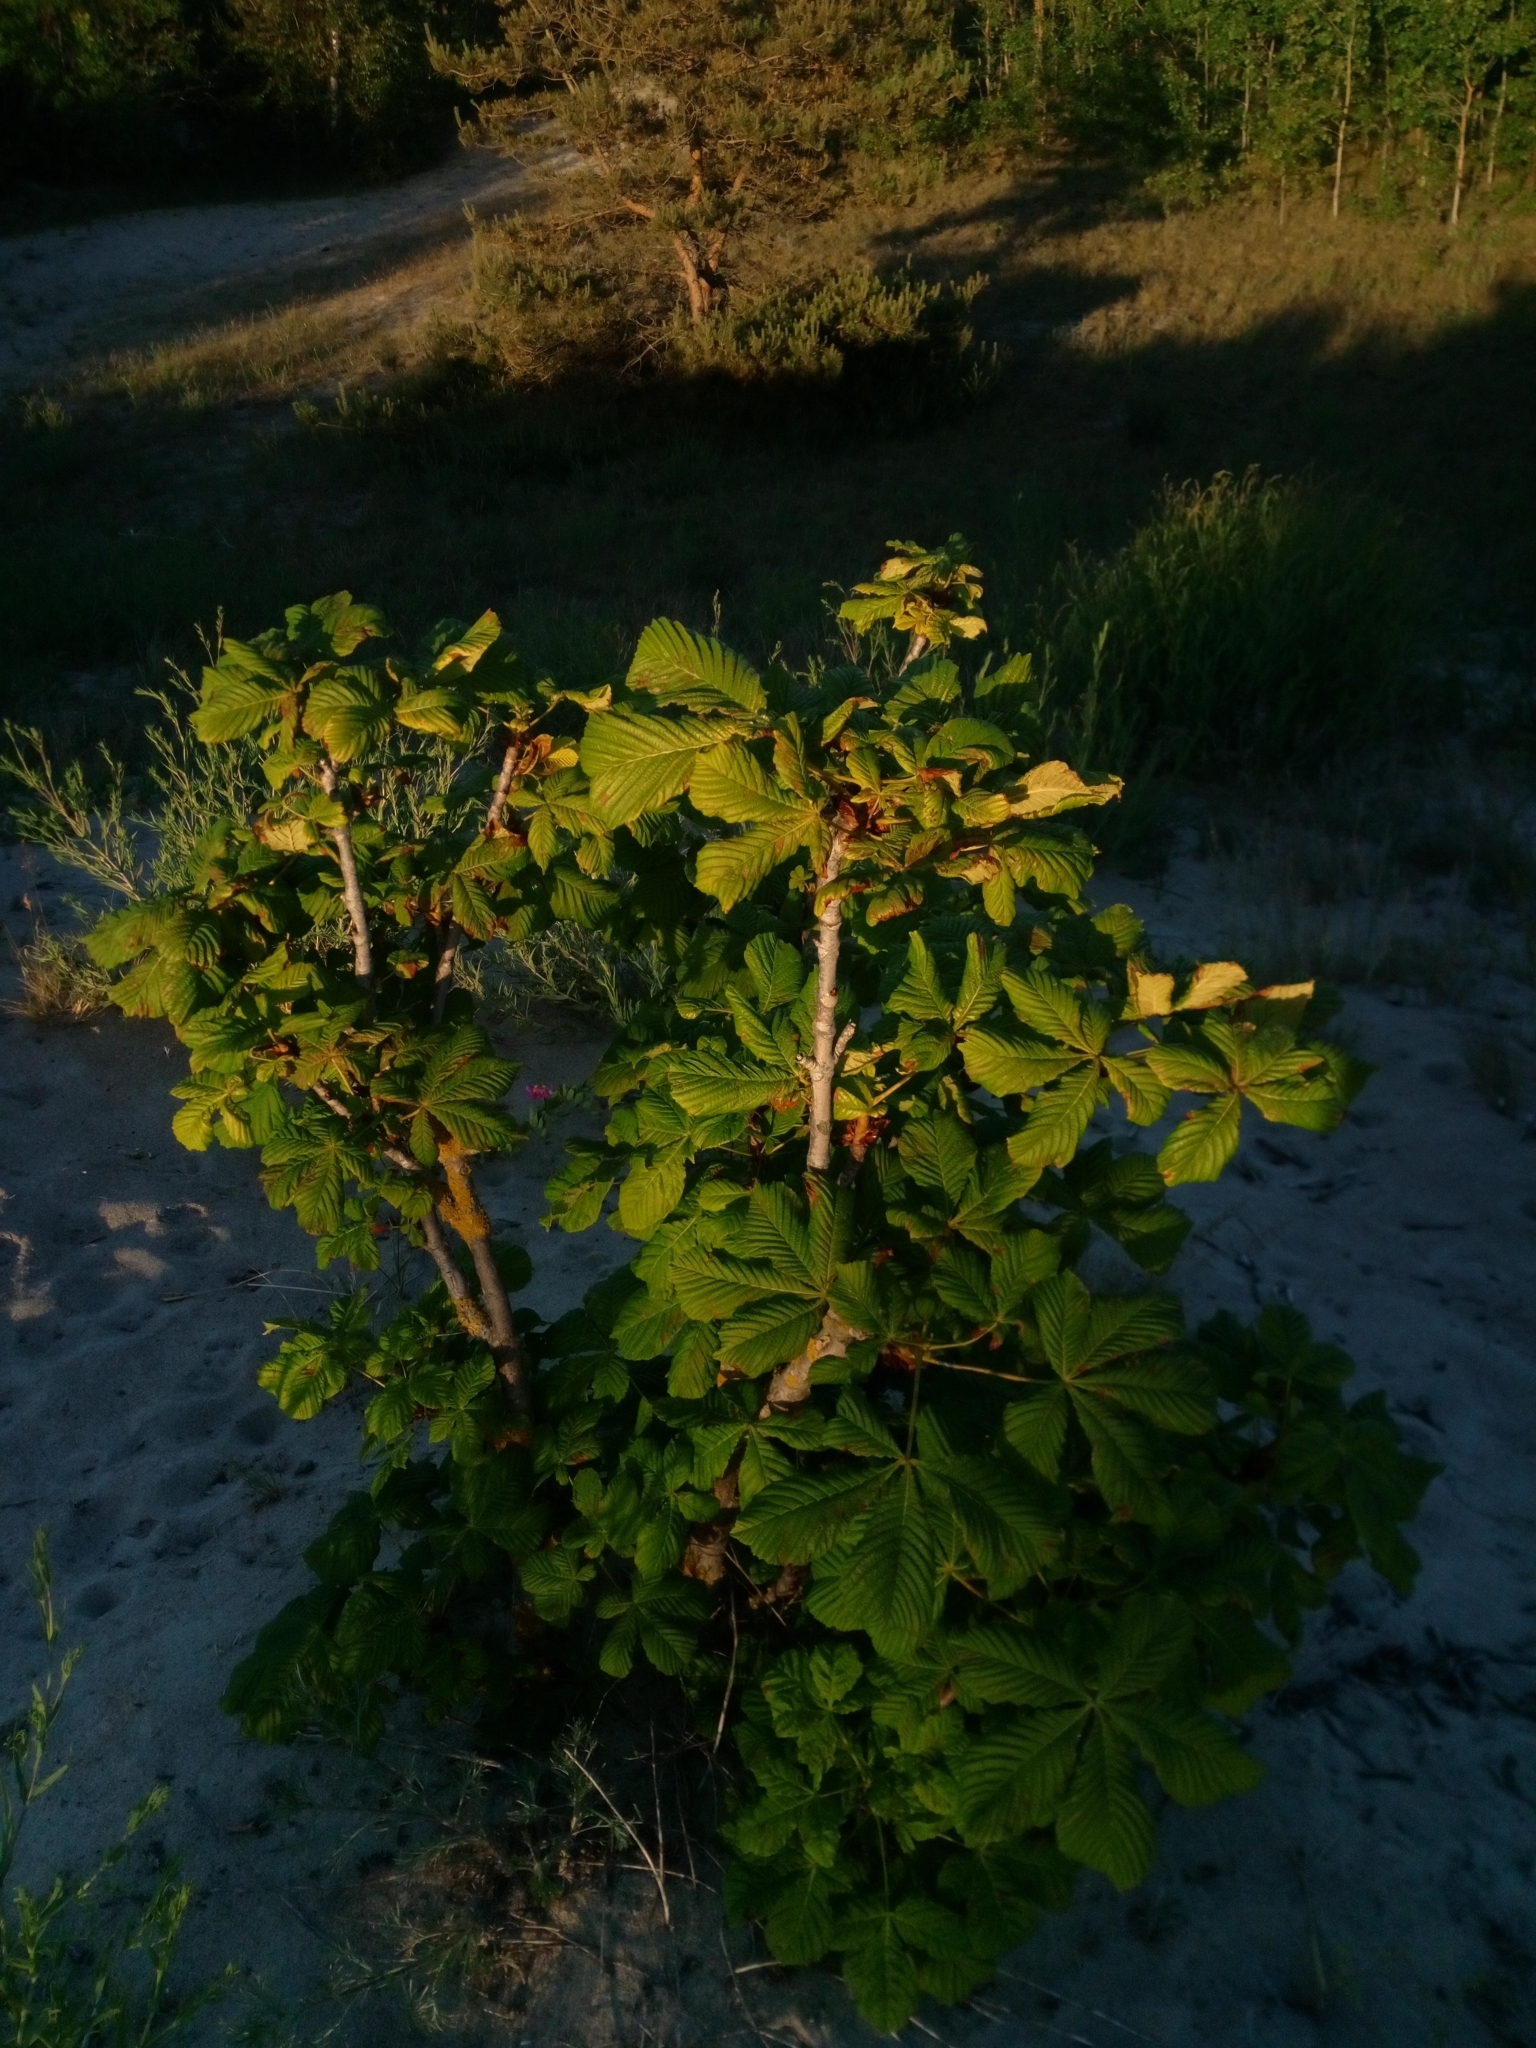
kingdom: Plantae
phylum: Tracheophyta
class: Magnoliopsida
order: Sapindales
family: Sapindaceae
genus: Aesculus
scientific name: Aesculus hippocastanum
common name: Horse-chestnut
